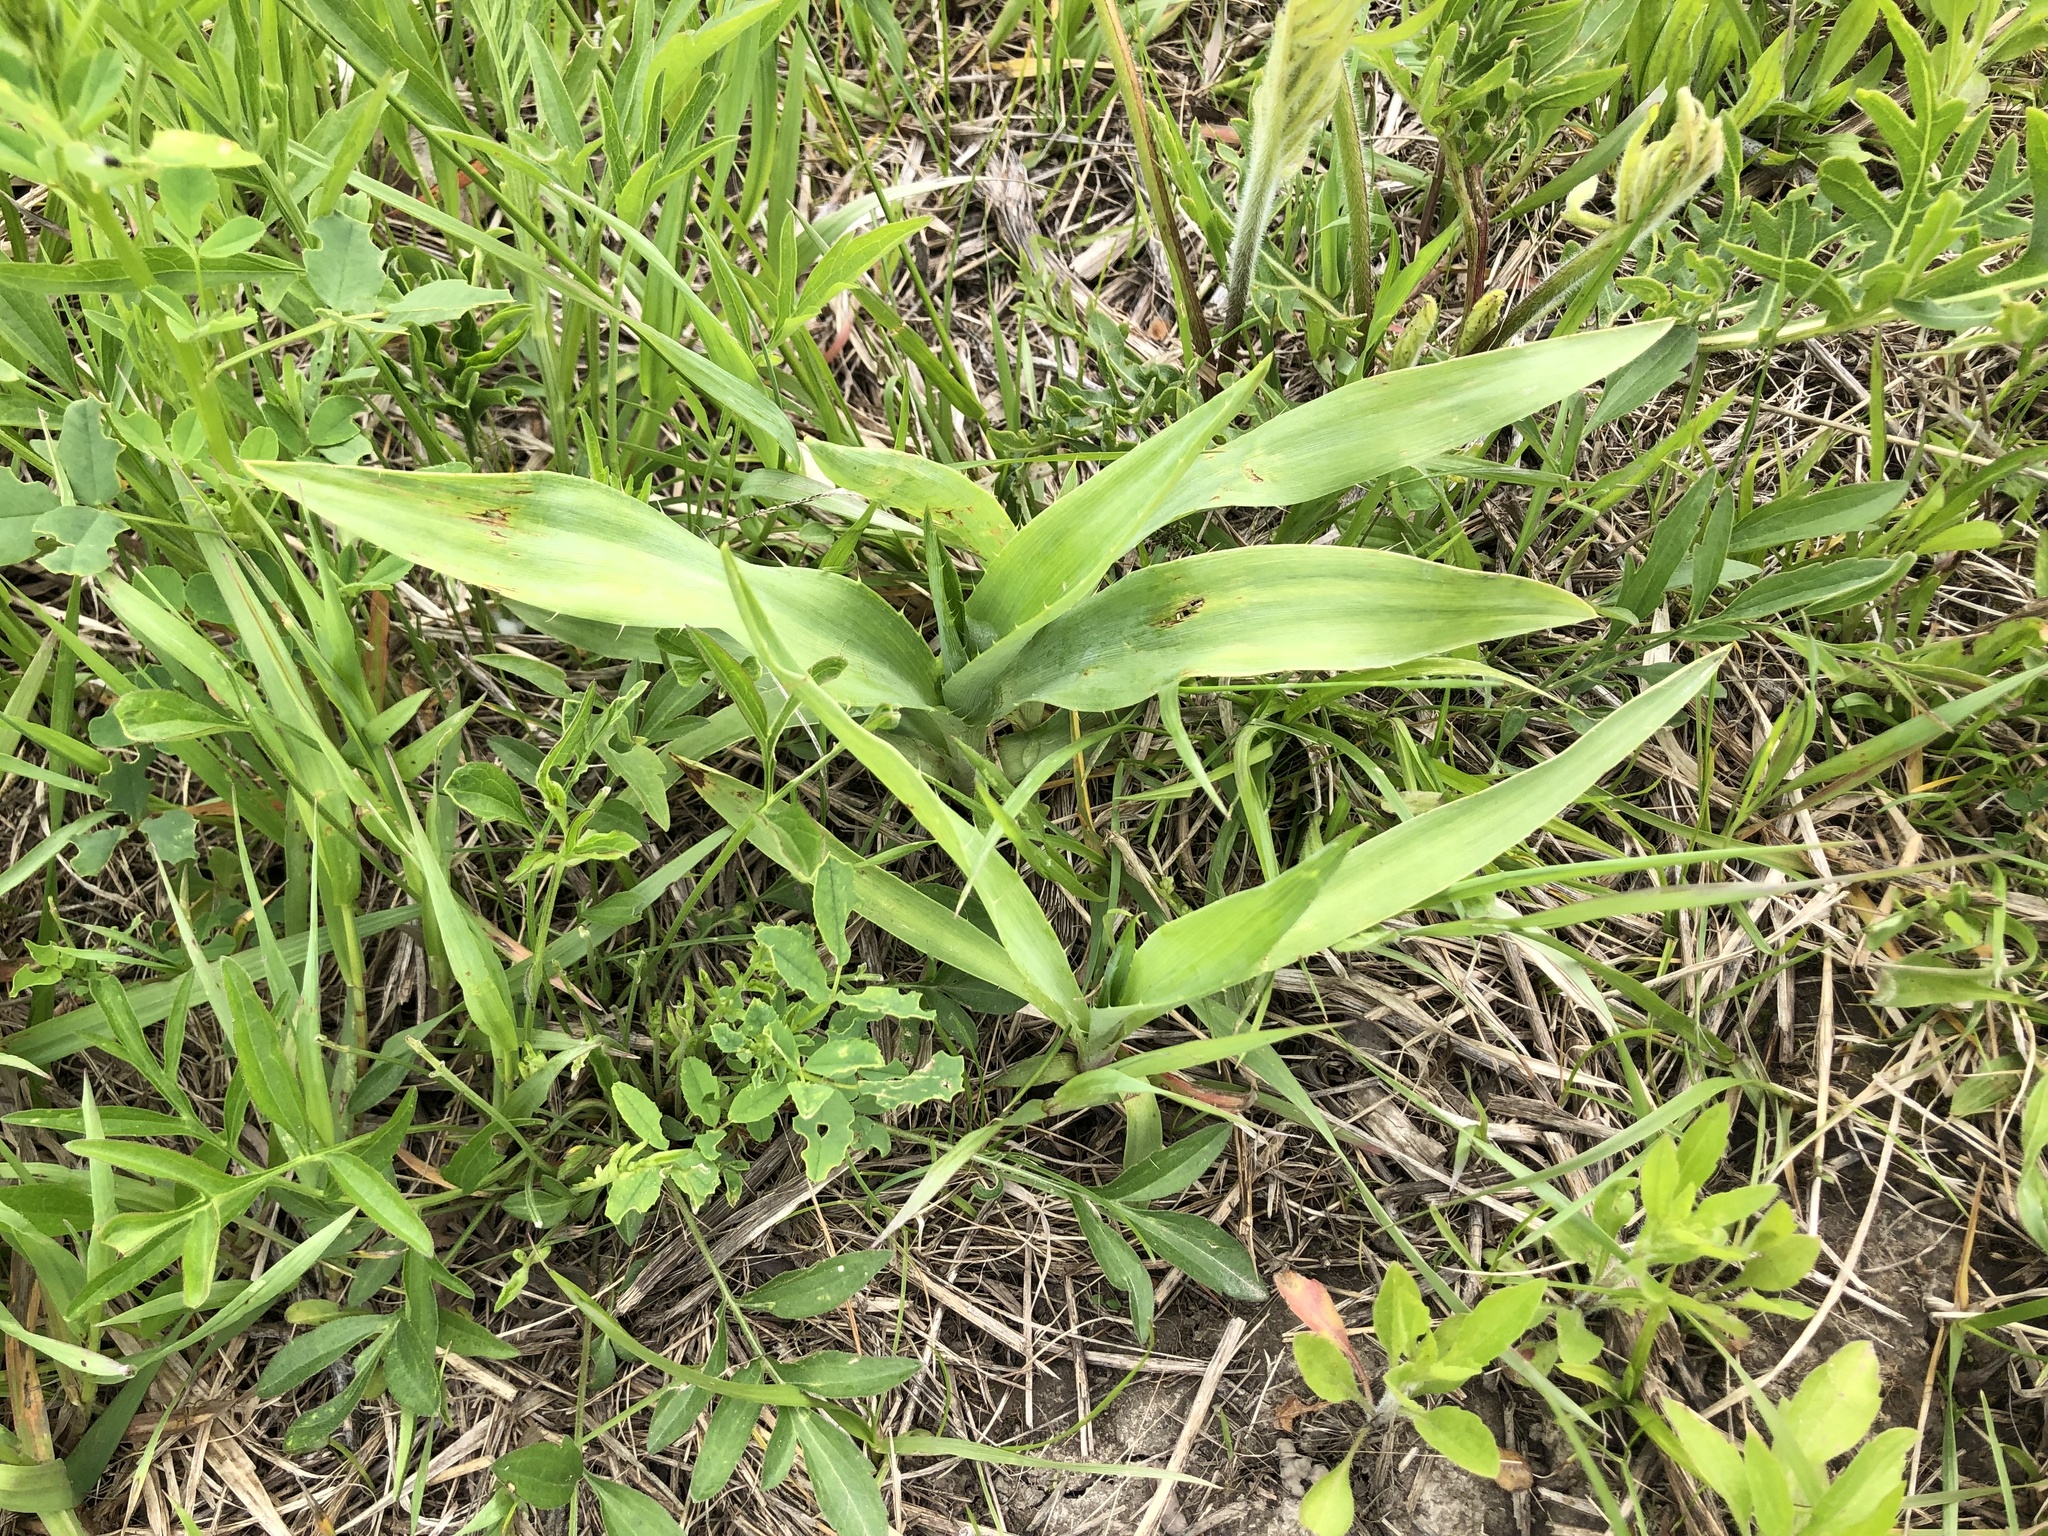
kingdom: Plantae
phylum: Tracheophyta
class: Magnoliopsida
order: Apiales
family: Apiaceae
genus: Eryngium
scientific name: Eryngium yuccifolium
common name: Button eryngo
